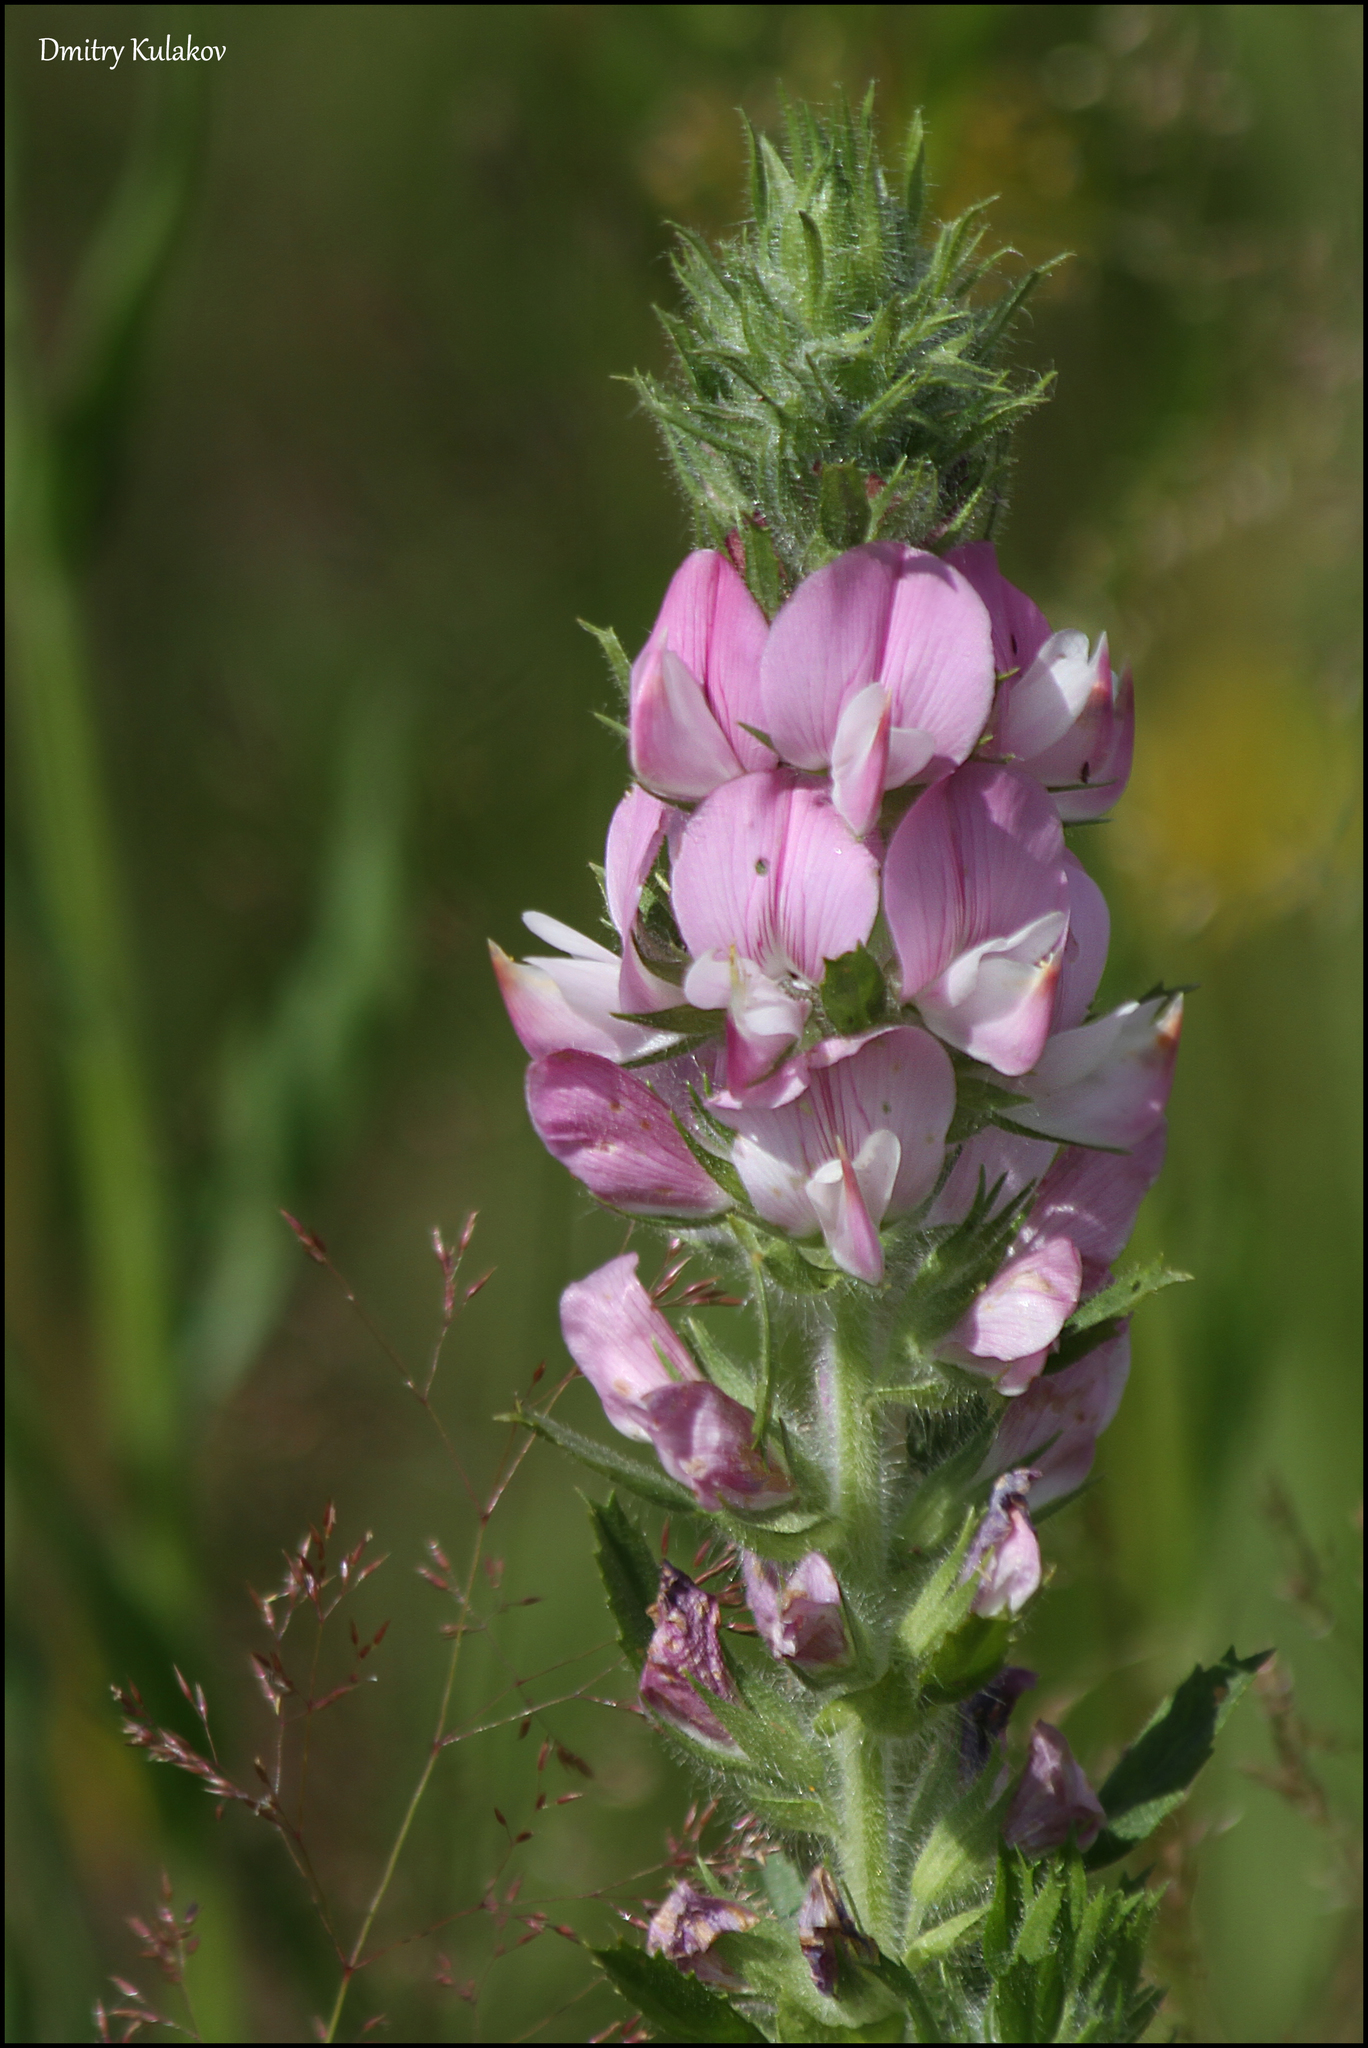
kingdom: Plantae
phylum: Tracheophyta
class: Magnoliopsida
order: Fabales
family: Fabaceae
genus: Ononis
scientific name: Ononis arvensis
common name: Field restharrow
